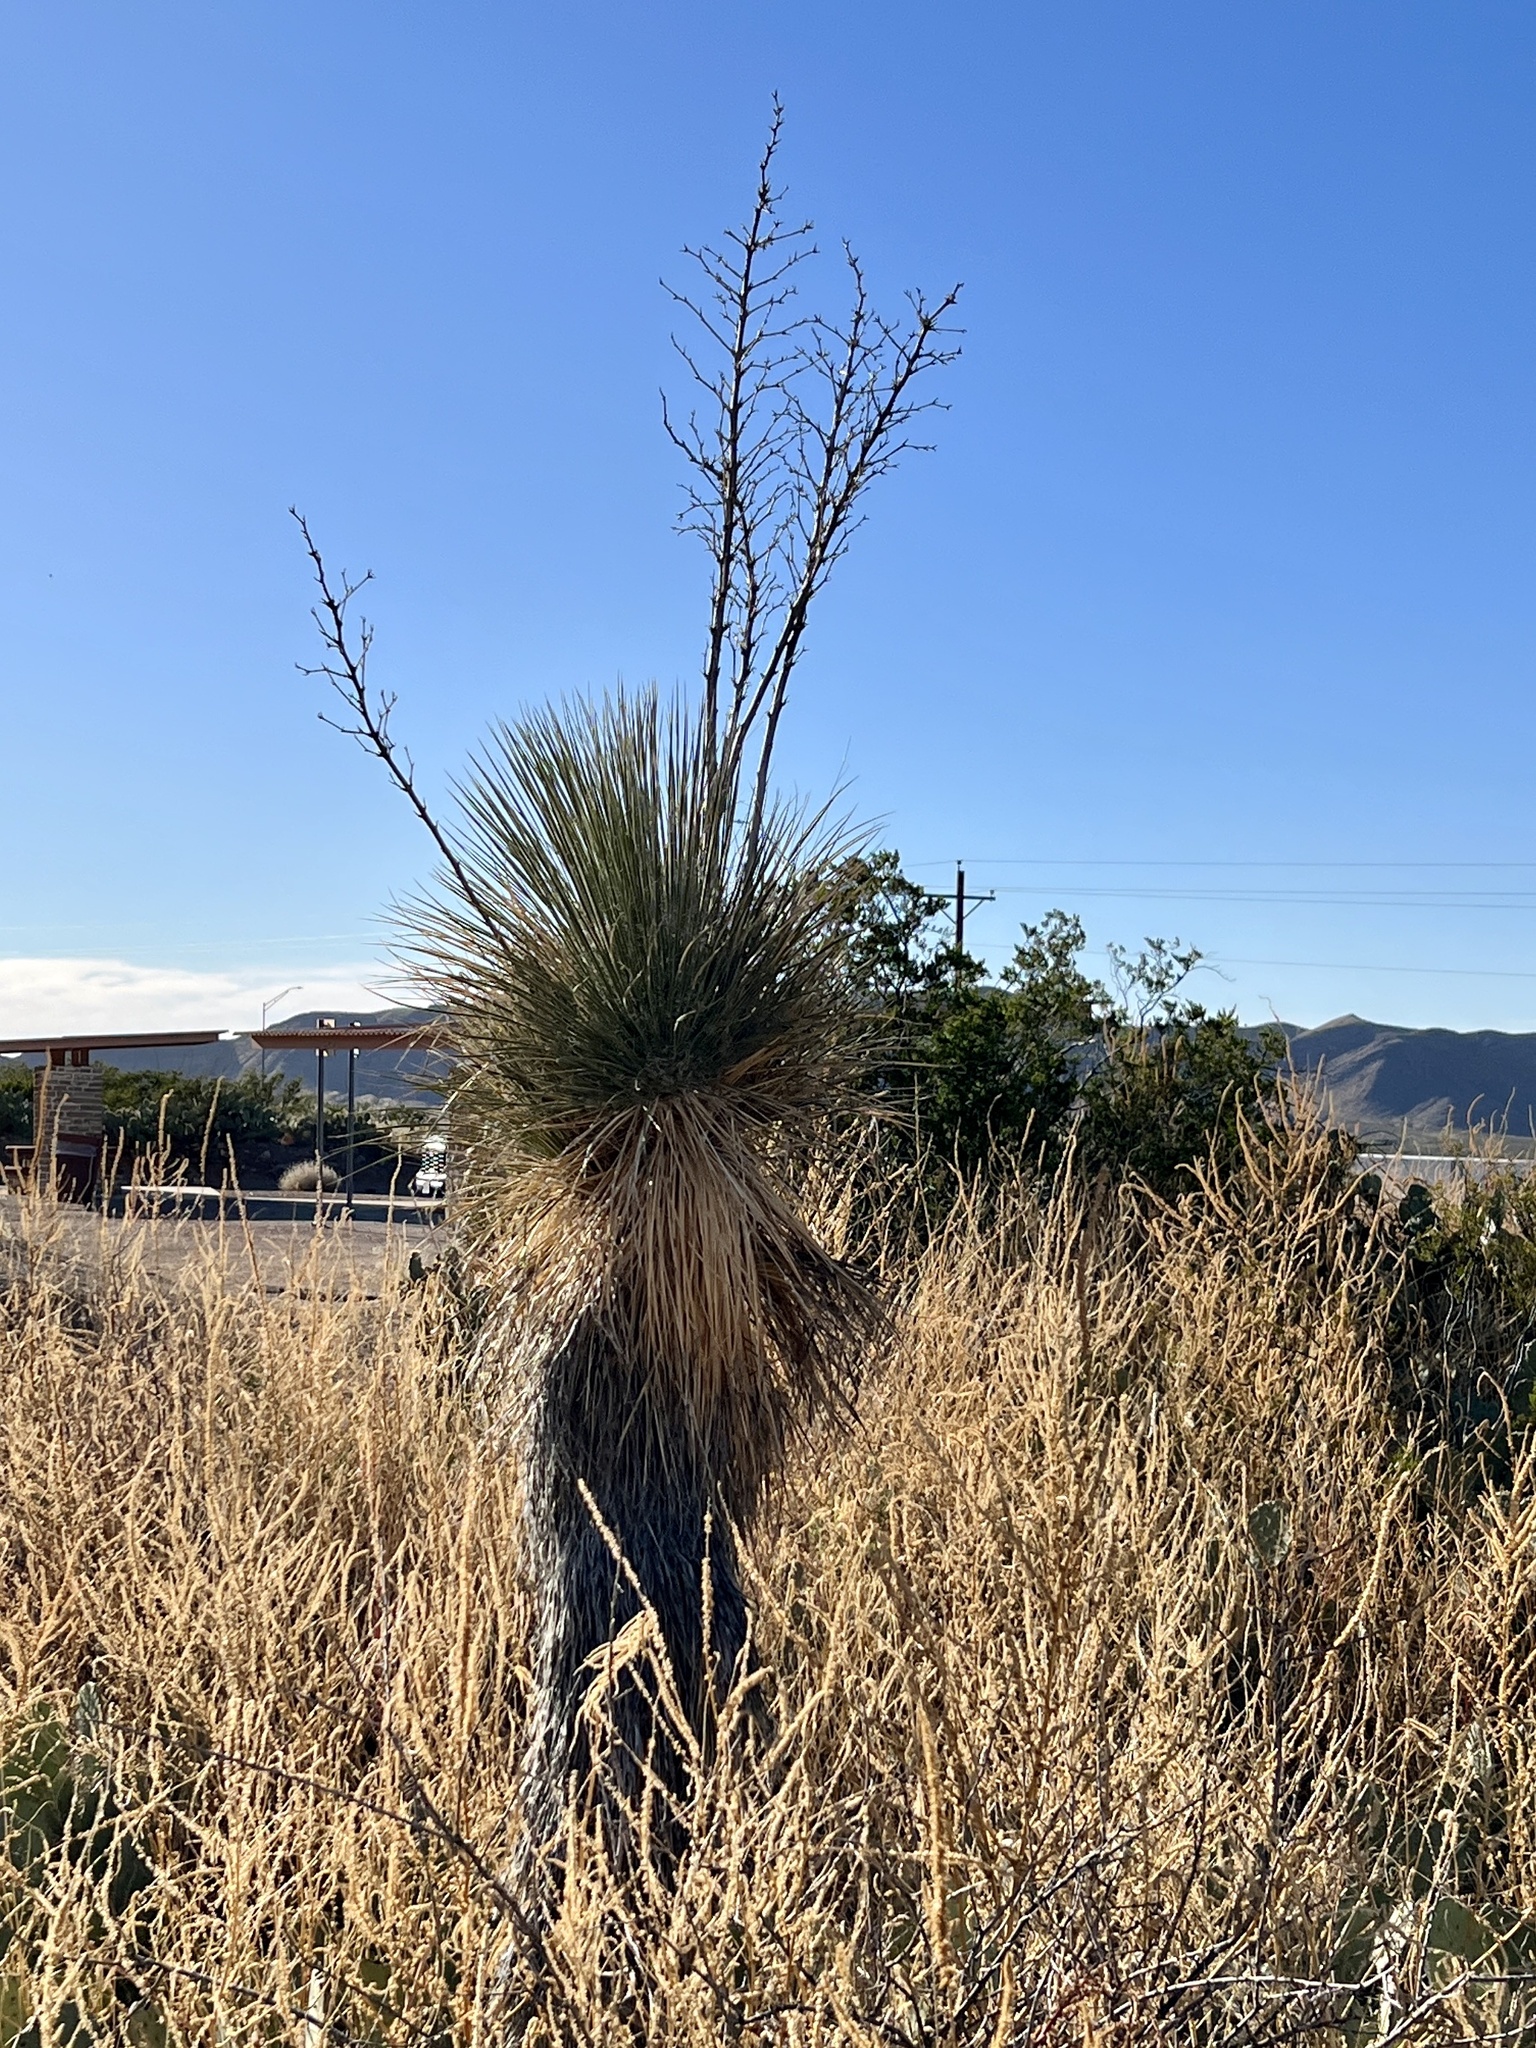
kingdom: Plantae
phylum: Tracheophyta
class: Liliopsida
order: Asparagales
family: Asparagaceae
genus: Yucca
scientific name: Yucca elata
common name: Palmella
